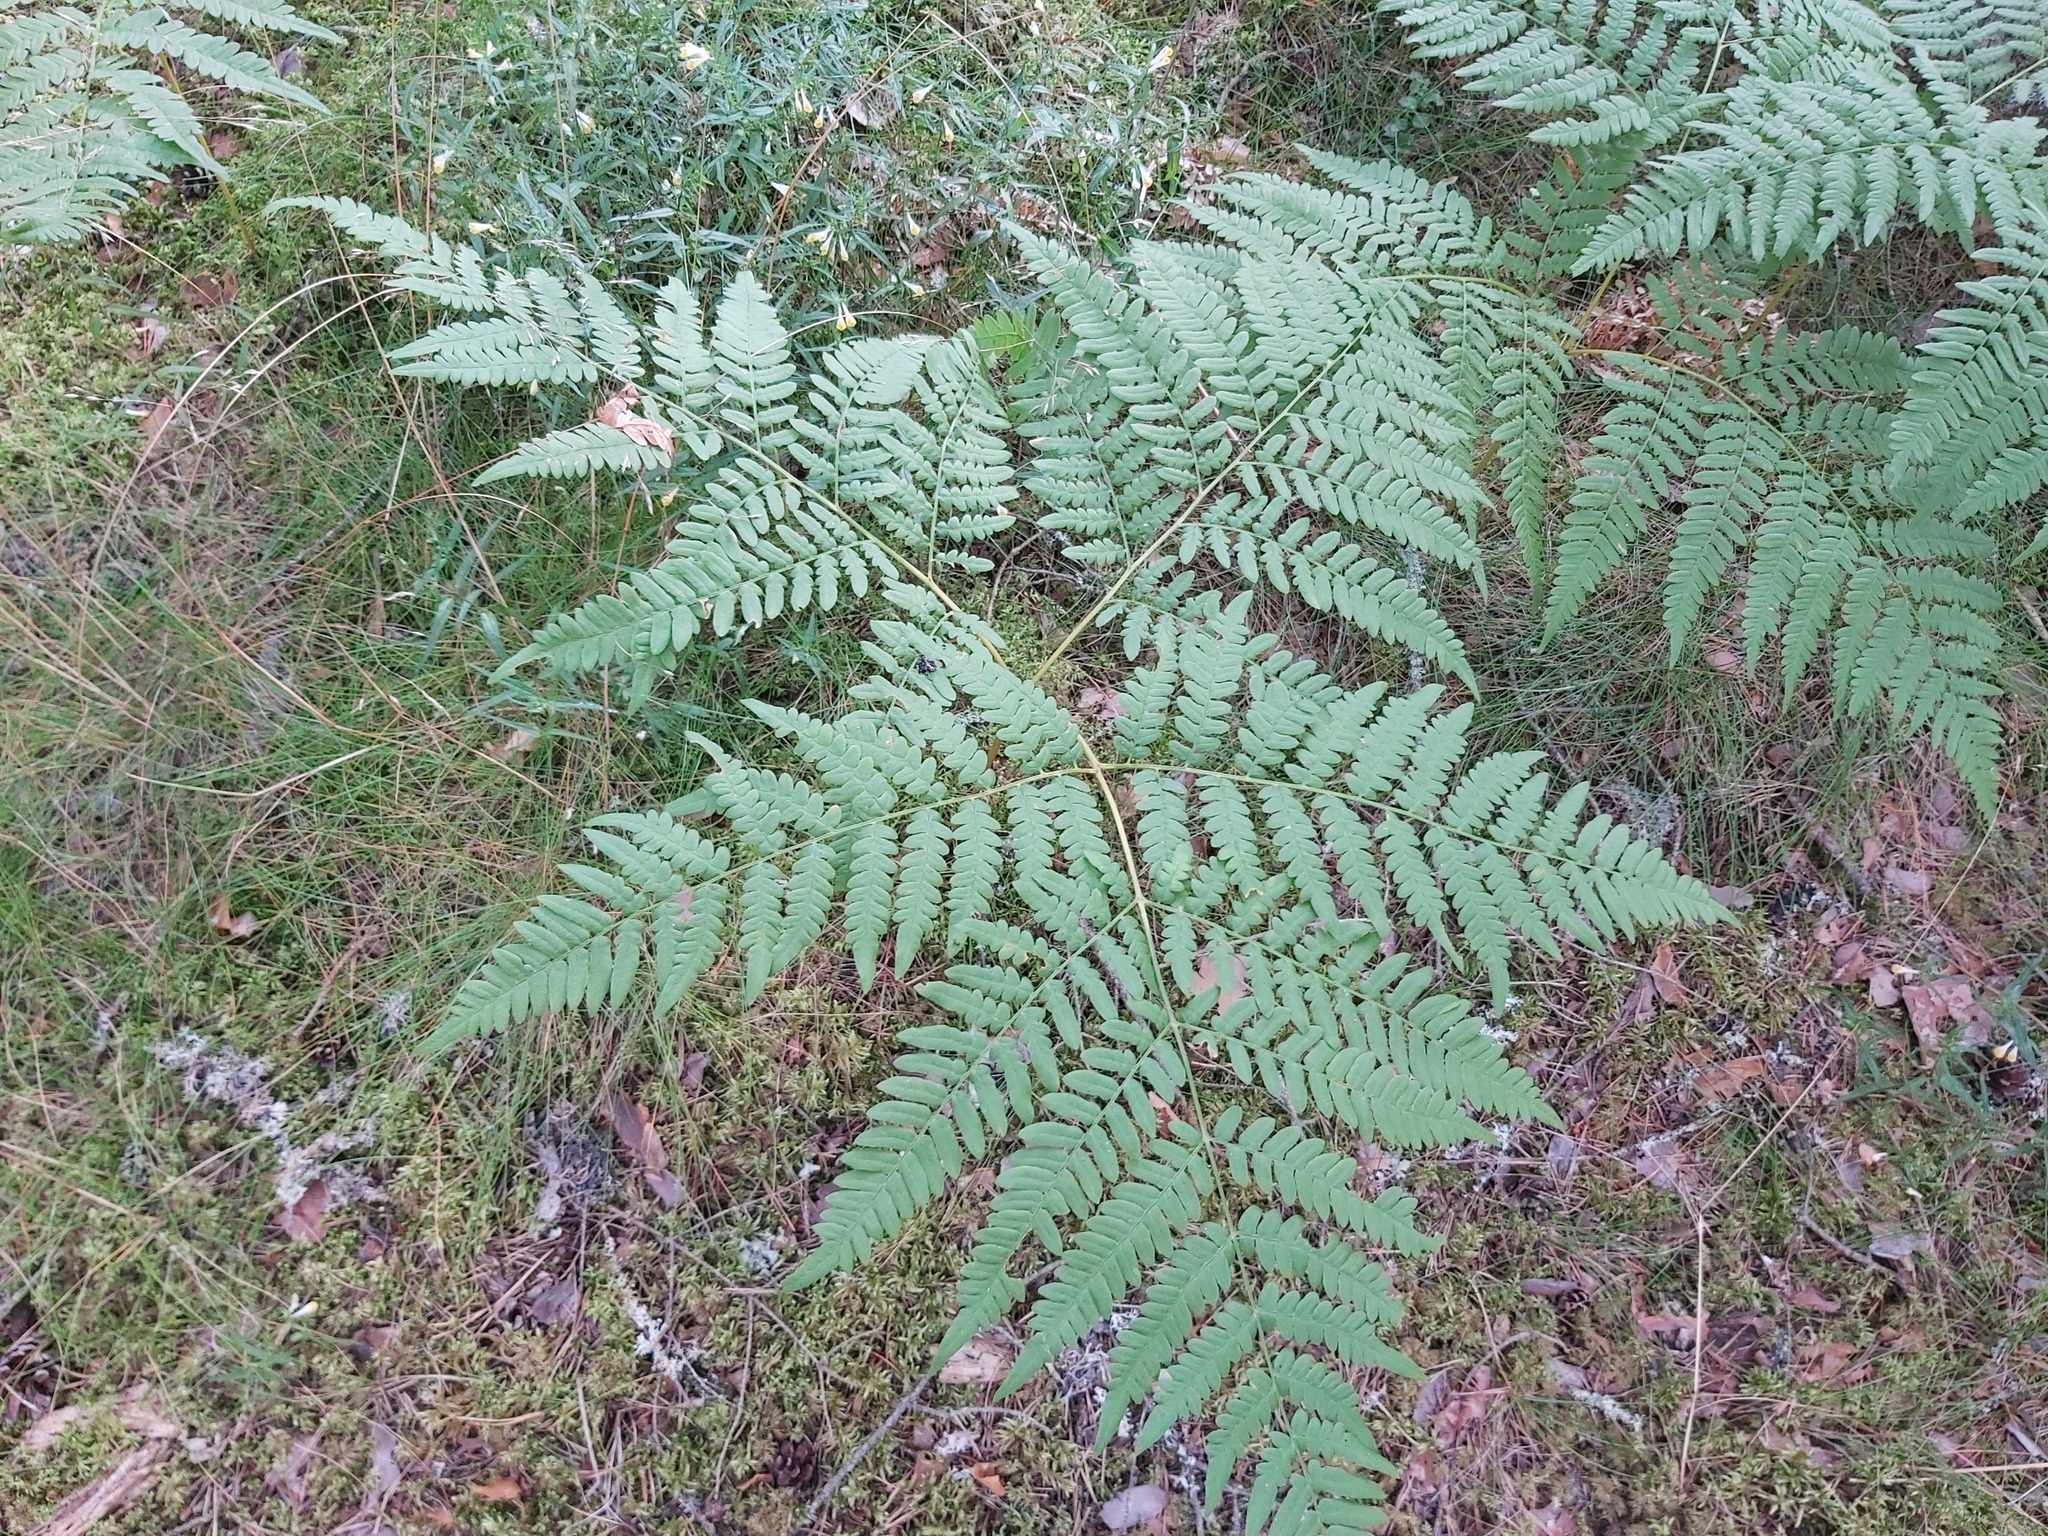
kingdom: Plantae
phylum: Tracheophyta
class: Polypodiopsida
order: Polypodiales
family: Dennstaedtiaceae
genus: Pteridium
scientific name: Pteridium aquilinum
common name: Bracken
